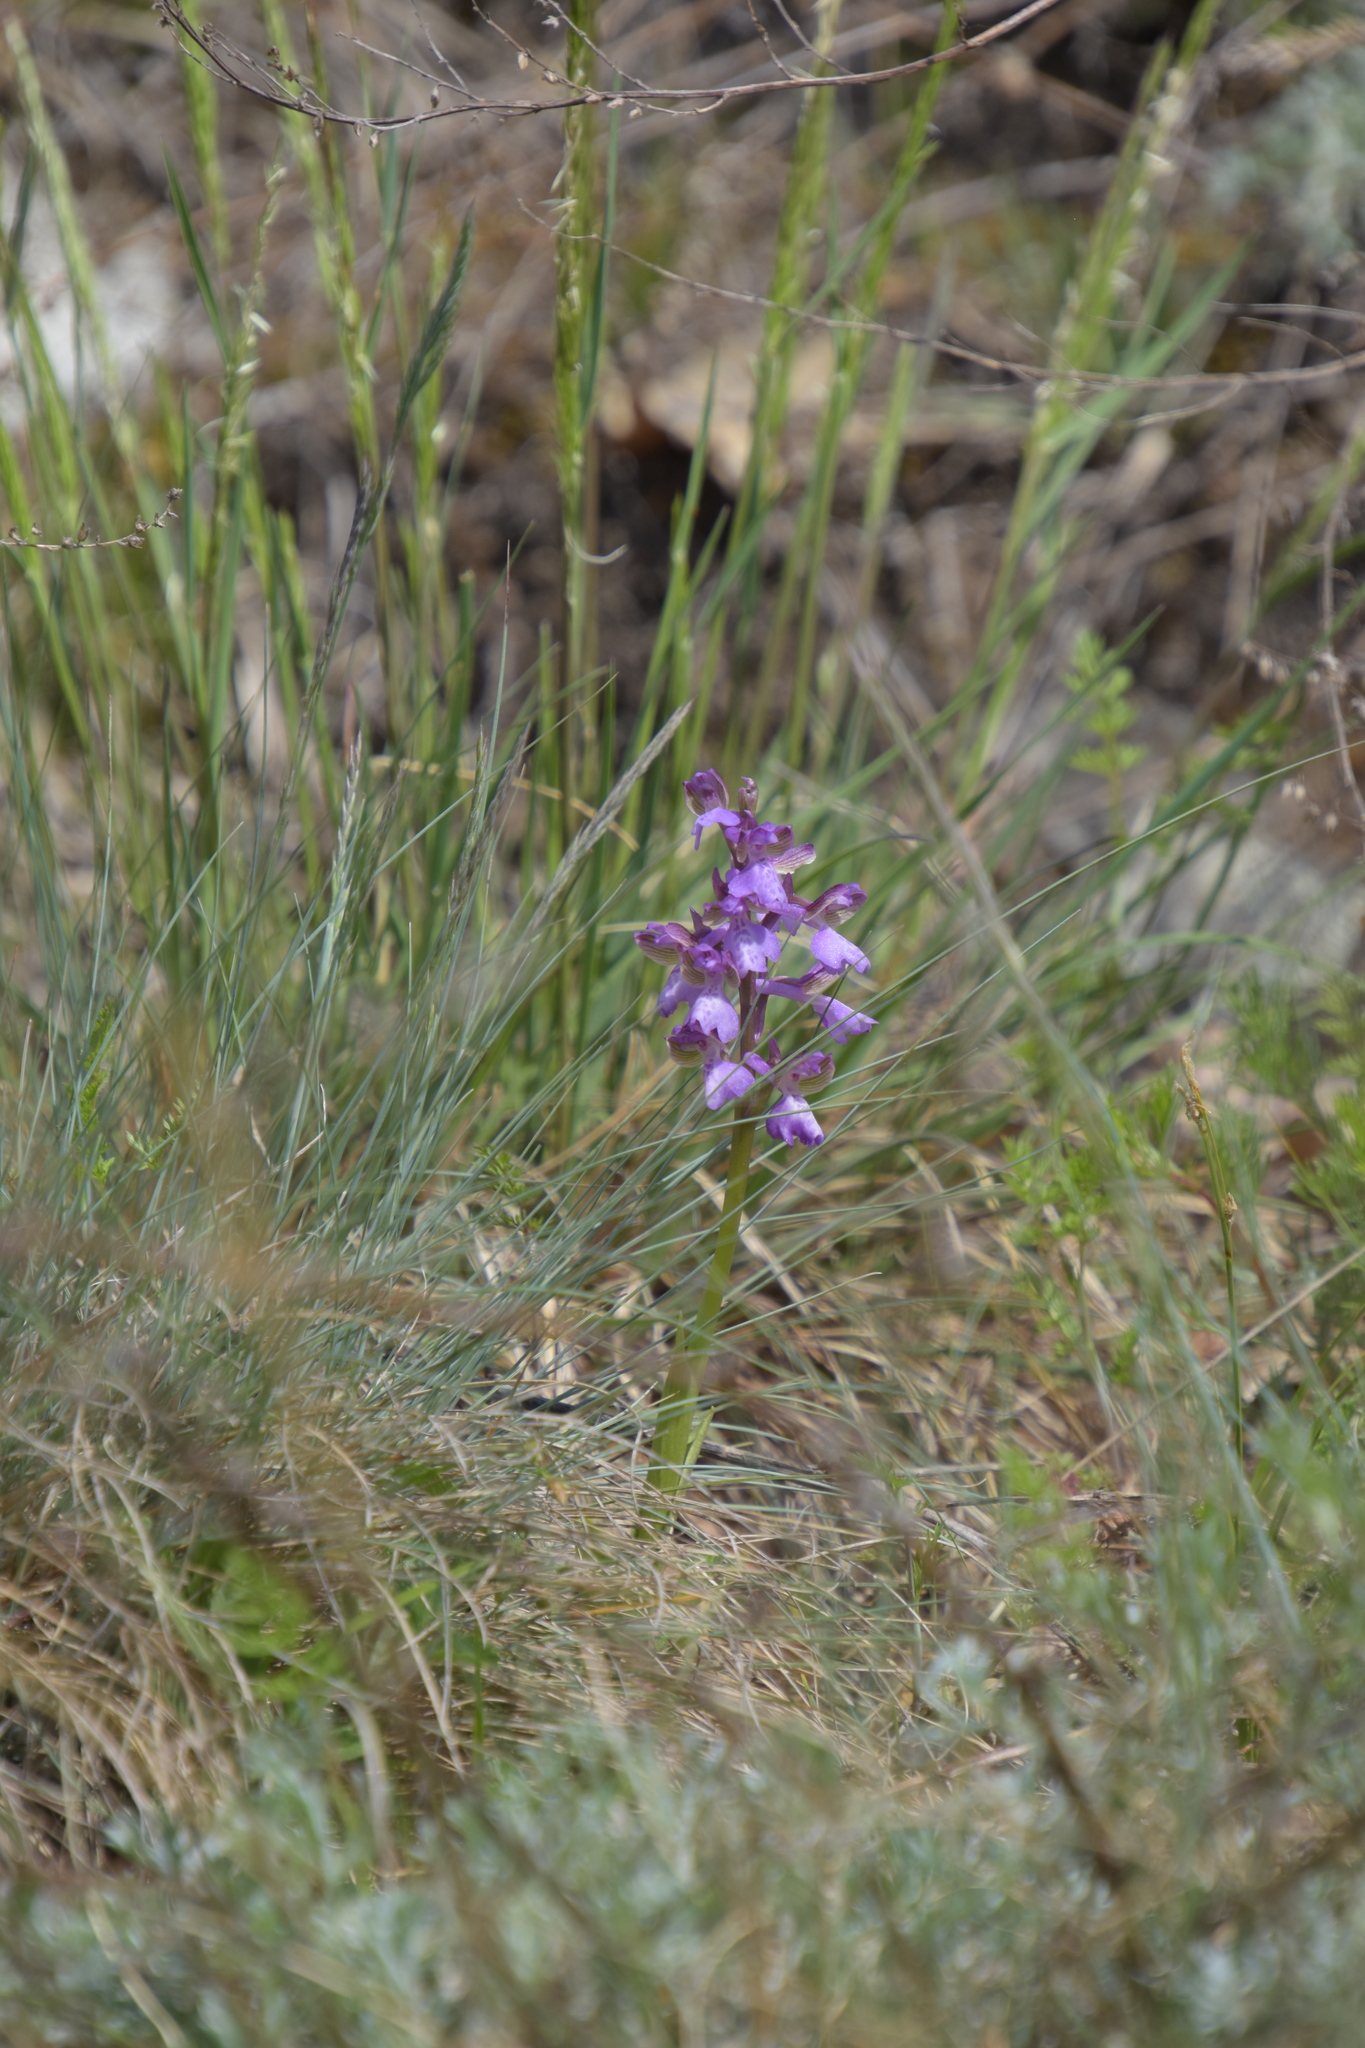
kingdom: Plantae
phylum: Tracheophyta
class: Liliopsida
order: Asparagales
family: Orchidaceae
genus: Anacamptis
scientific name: Anacamptis morio
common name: Green-winged orchid
